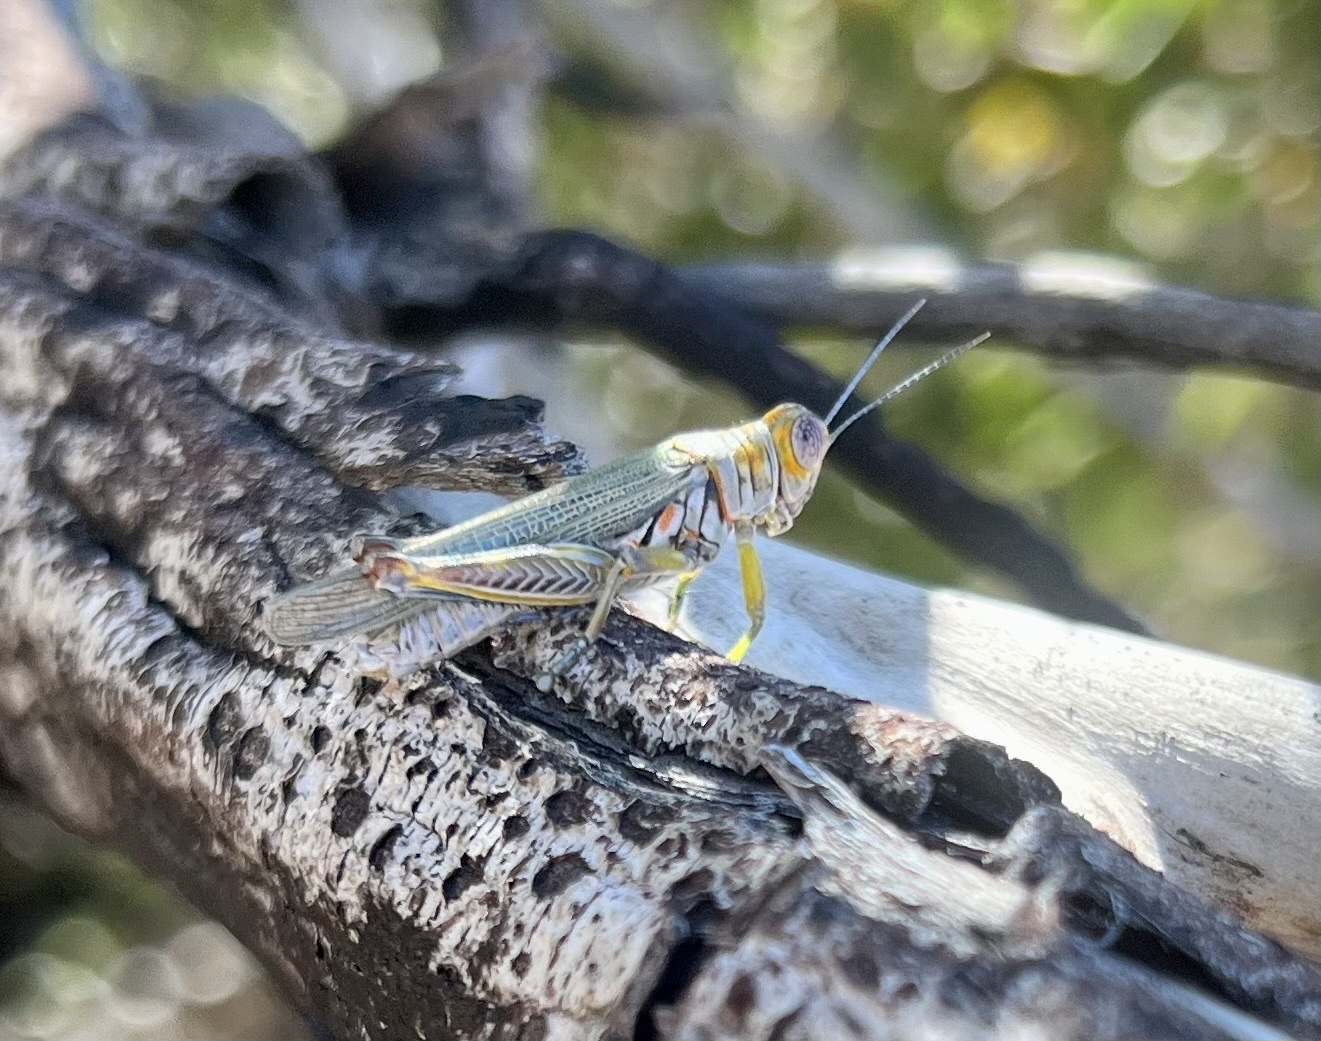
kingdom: Animalia
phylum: Arthropoda
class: Insecta
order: Orthoptera
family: Acrididae
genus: Poecilotettix
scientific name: Poecilotettix sanguineus
